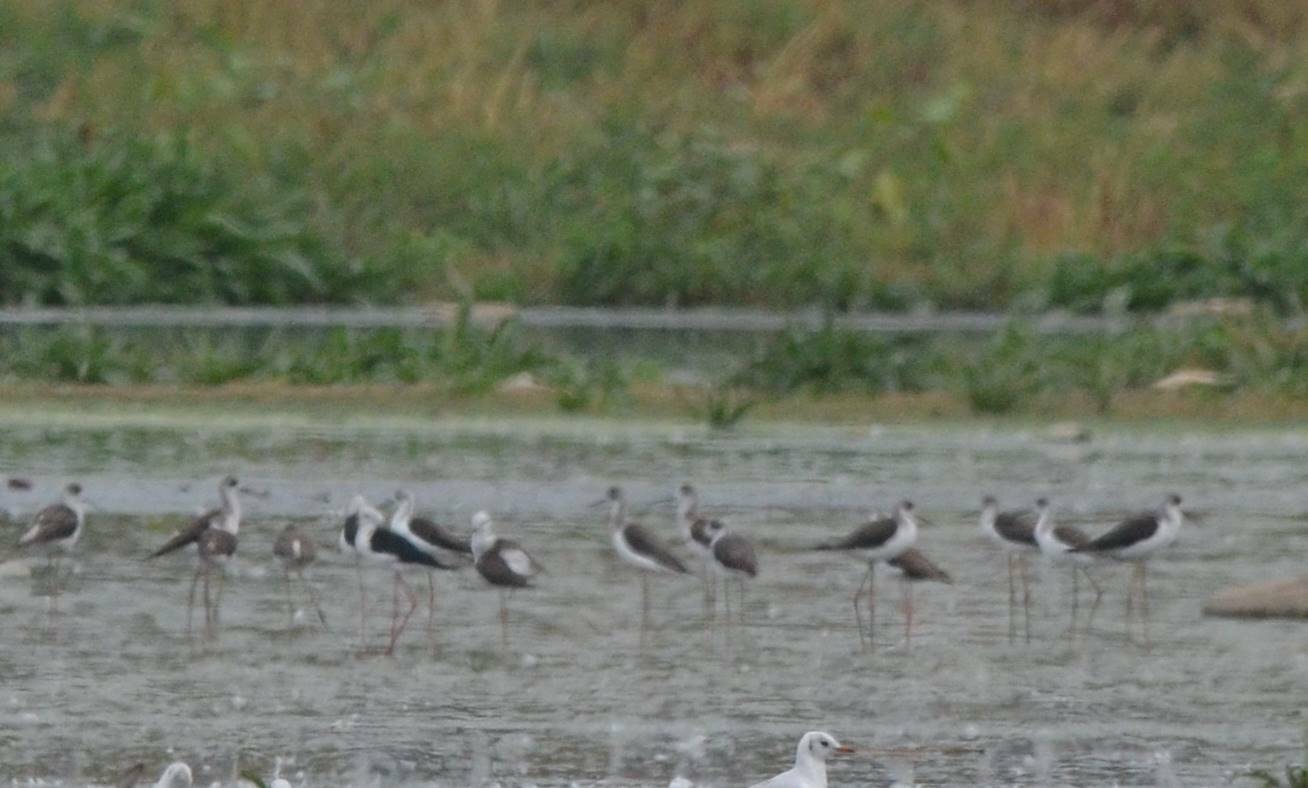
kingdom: Animalia
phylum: Chordata
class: Aves
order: Charadriiformes
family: Recurvirostridae
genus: Himantopus
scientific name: Himantopus himantopus
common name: Black-winged stilt
